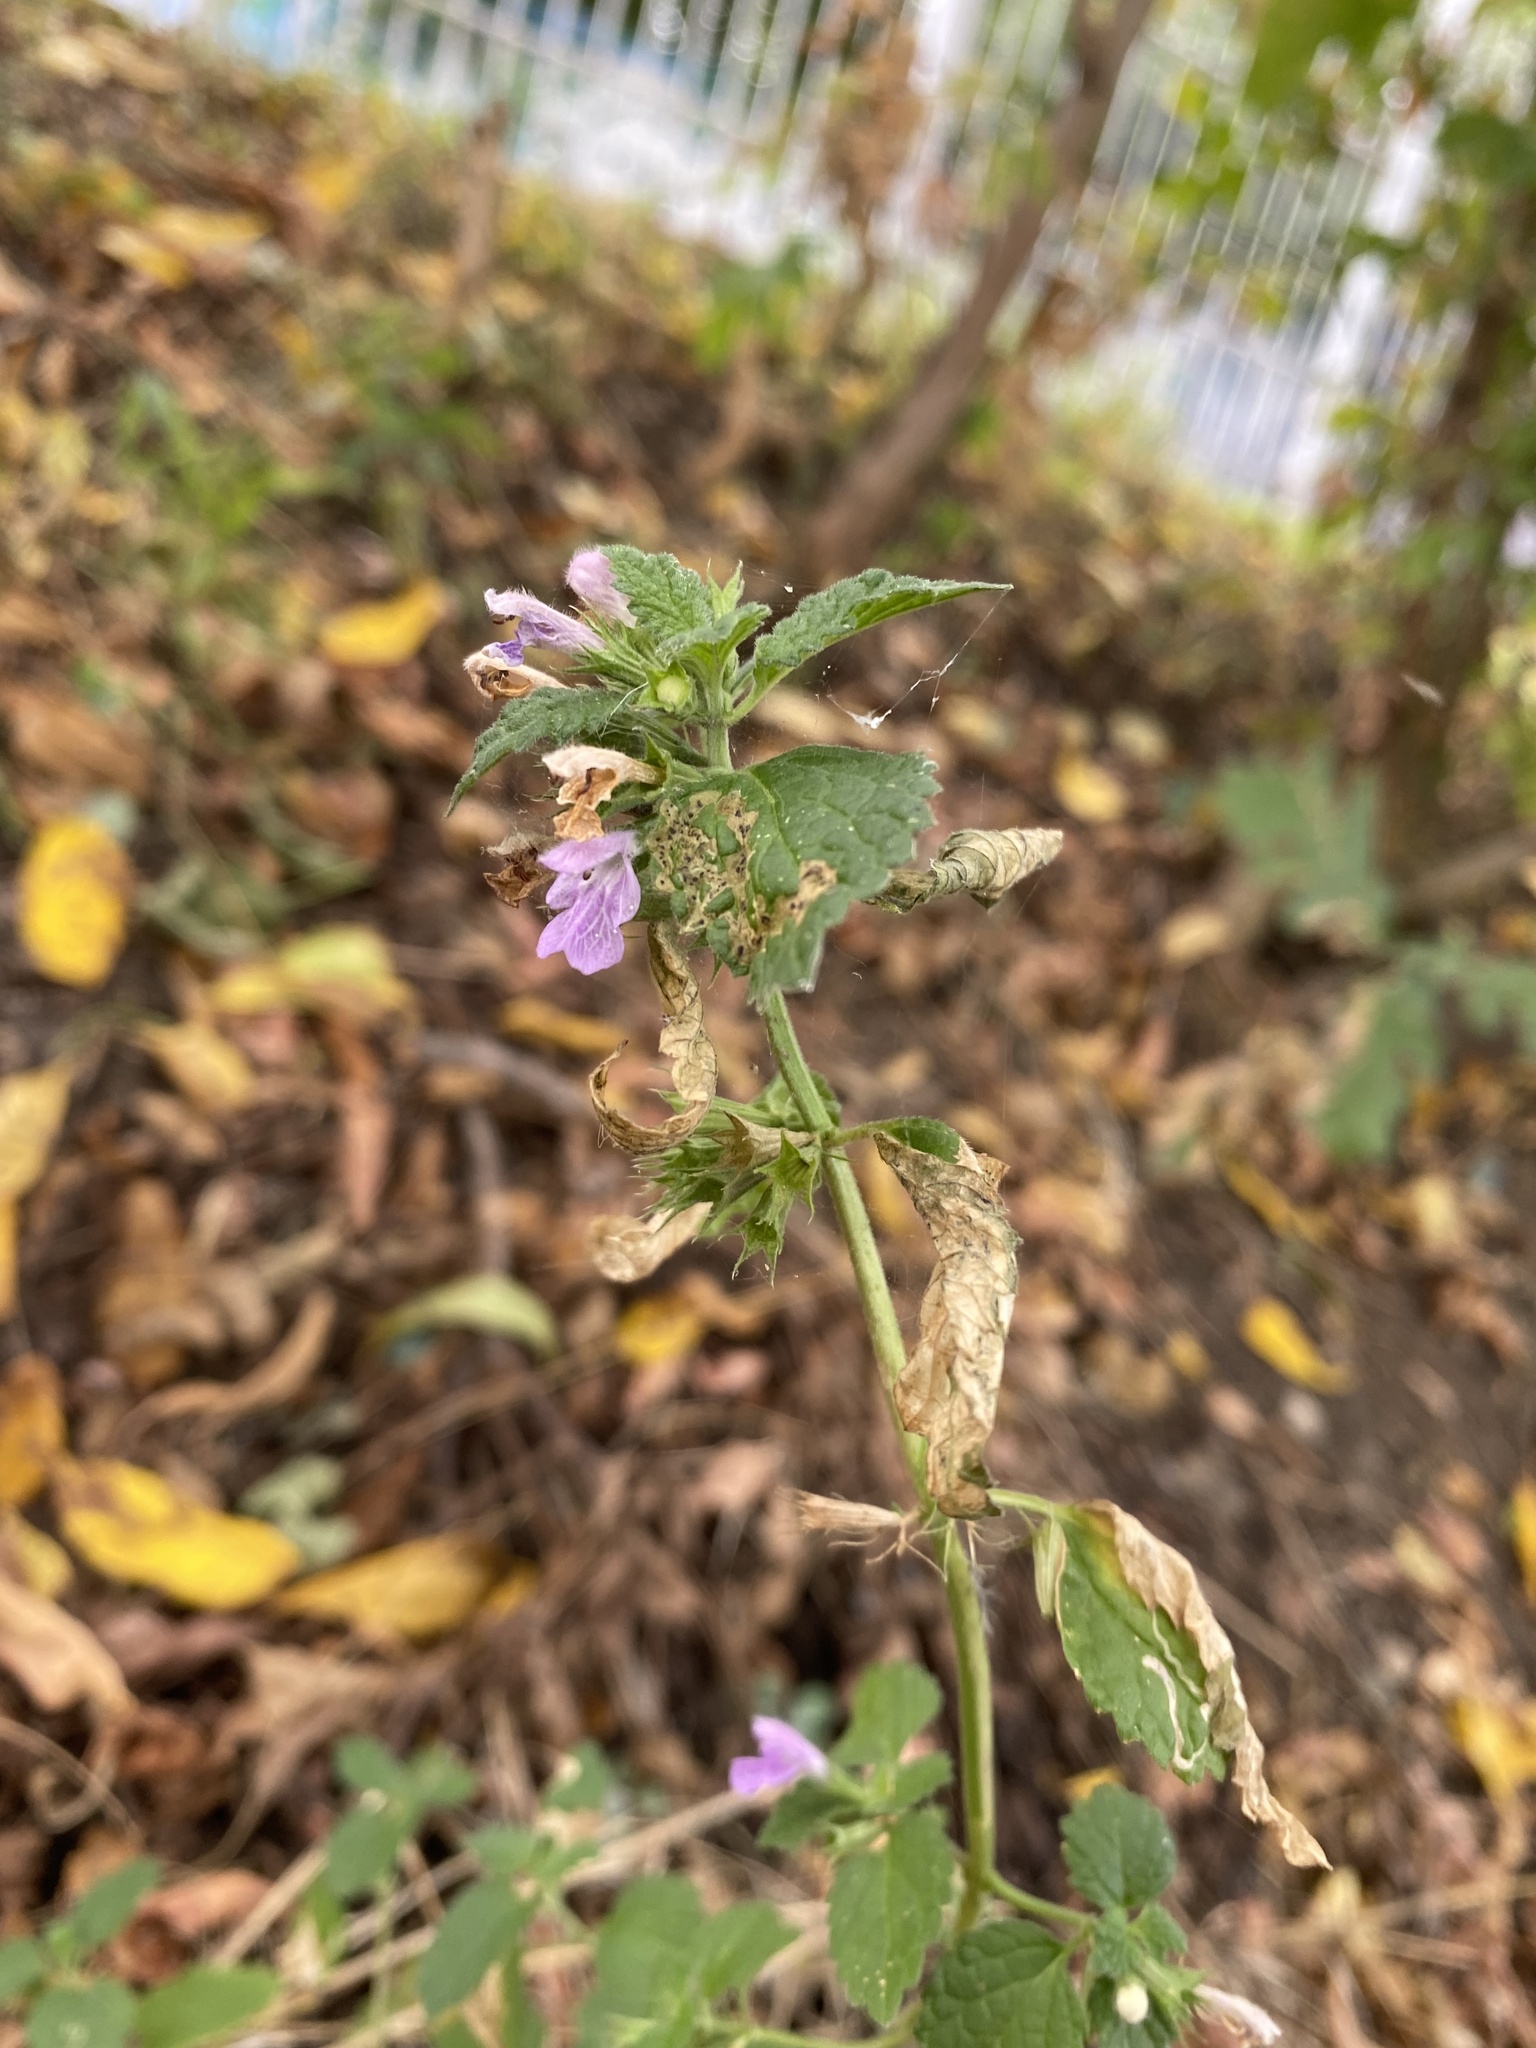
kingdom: Plantae
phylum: Tracheophyta
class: Magnoliopsida
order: Lamiales
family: Lamiaceae
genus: Ballota
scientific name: Ballota nigra
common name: Black horehound
